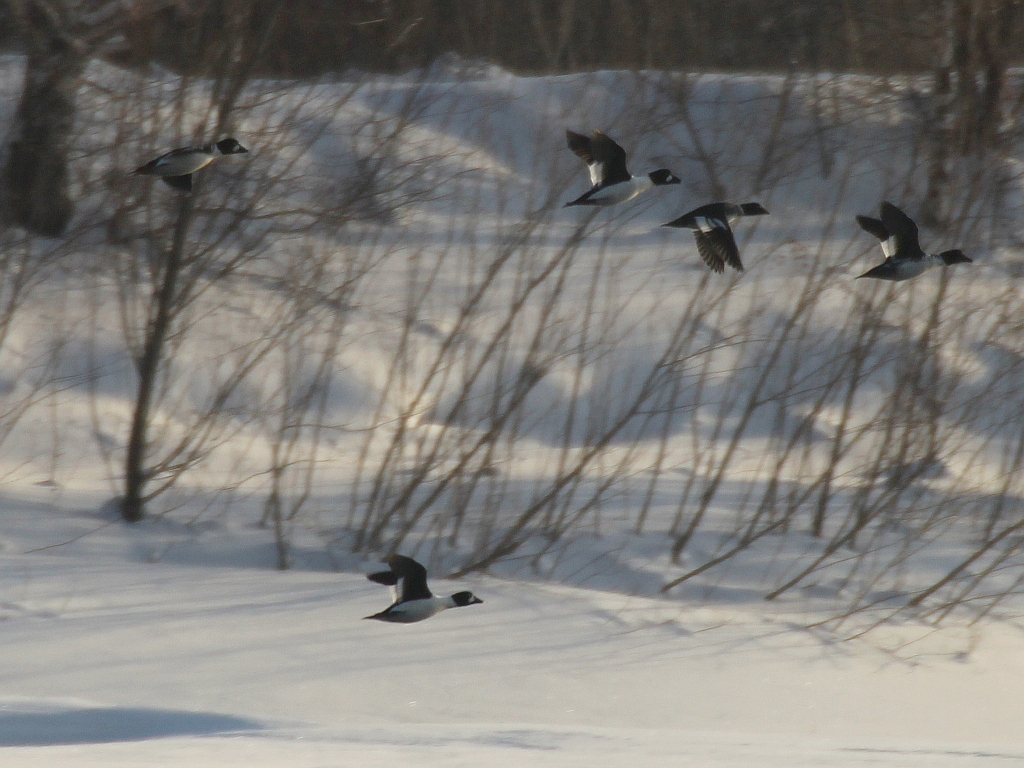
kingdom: Animalia
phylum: Chordata
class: Aves
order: Anseriformes
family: Anatidae
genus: Bucephala
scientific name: Bucephala clangula
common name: Common goldeneye
